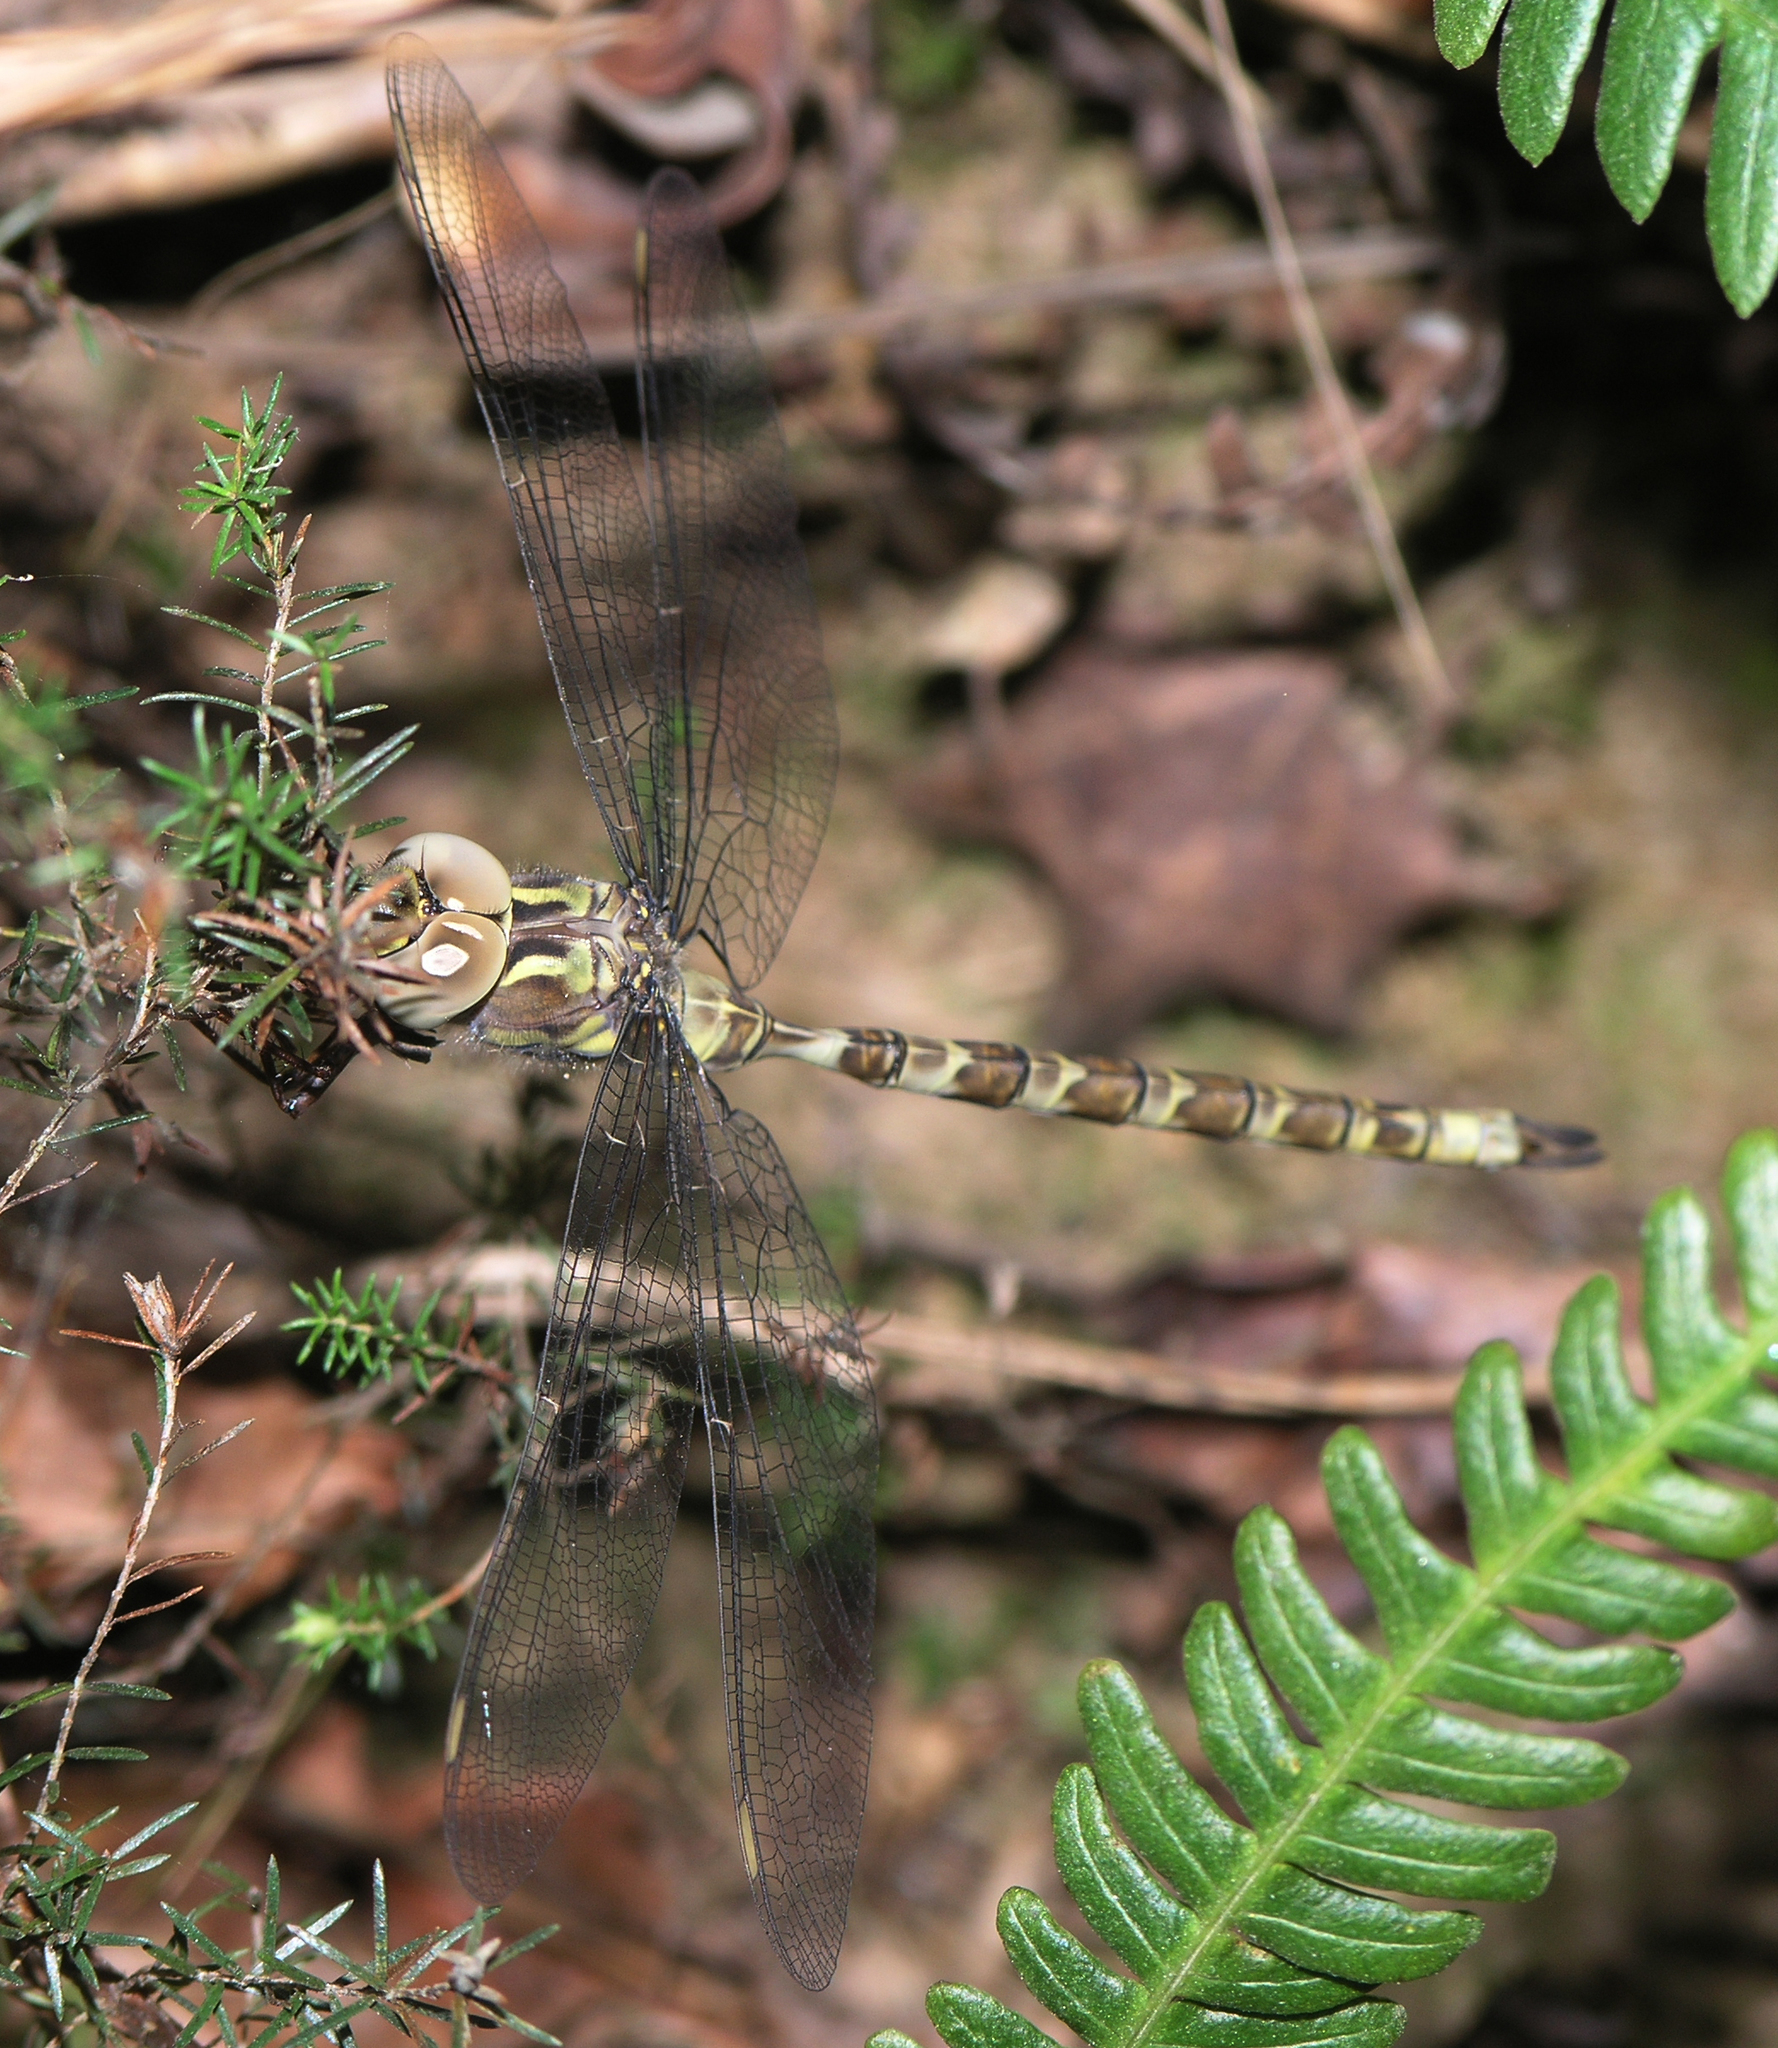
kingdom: Animalia
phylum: Arthropoda
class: Insecta
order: Odonata
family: Aeshnidae
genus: Boyeria
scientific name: Boyeria irene
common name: Western spectre
